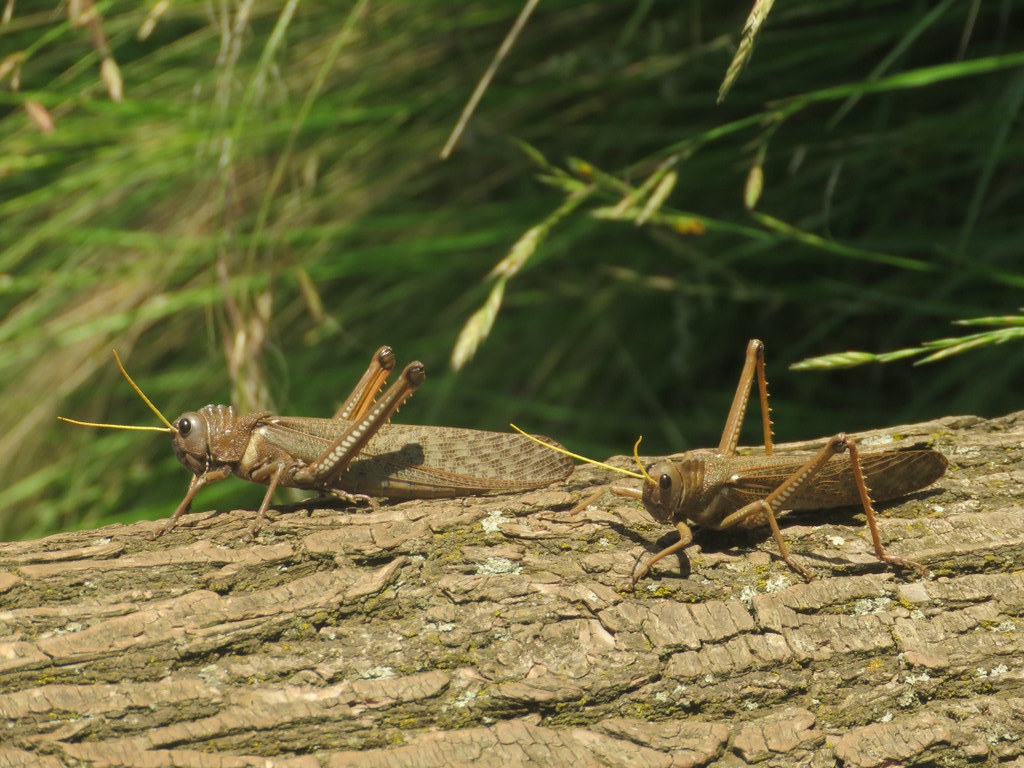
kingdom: Animalia
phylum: Arthropoda
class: Insecta
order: Orthoptera
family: Romaleidae
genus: Tropidacris
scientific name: Tropidacris collaris
